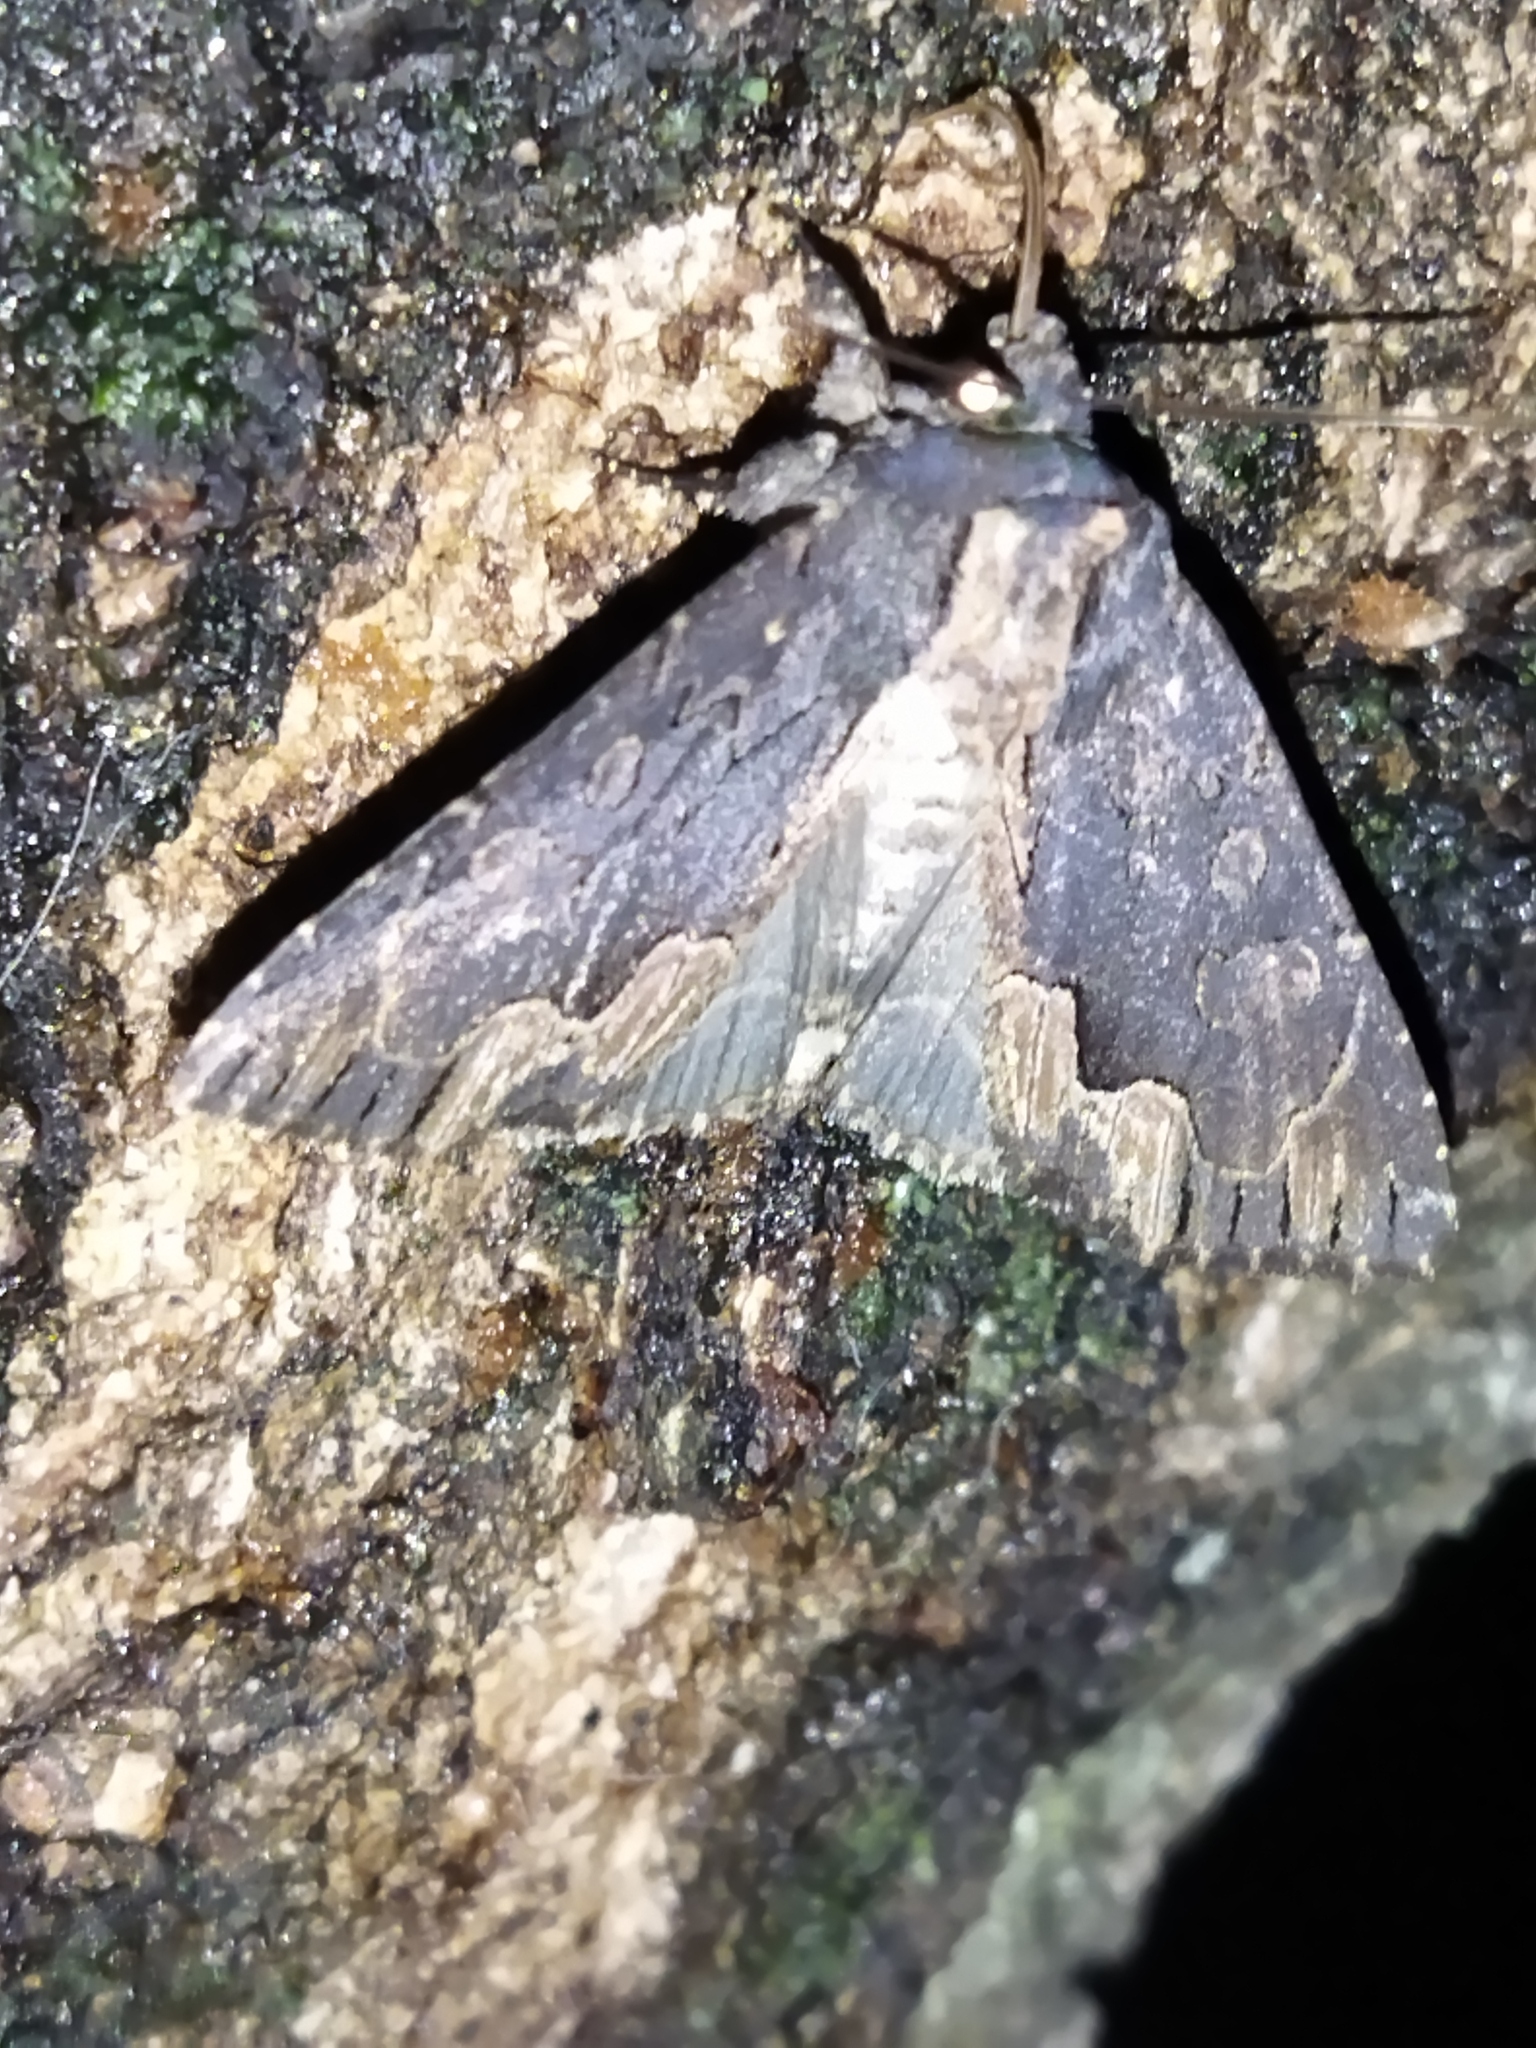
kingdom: Animalia
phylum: Arthropoda
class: Insecta
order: Lepidoptera
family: Noctuidae
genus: Dypterygia
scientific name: Dypterygia scabriuscula
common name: Bird's wing
